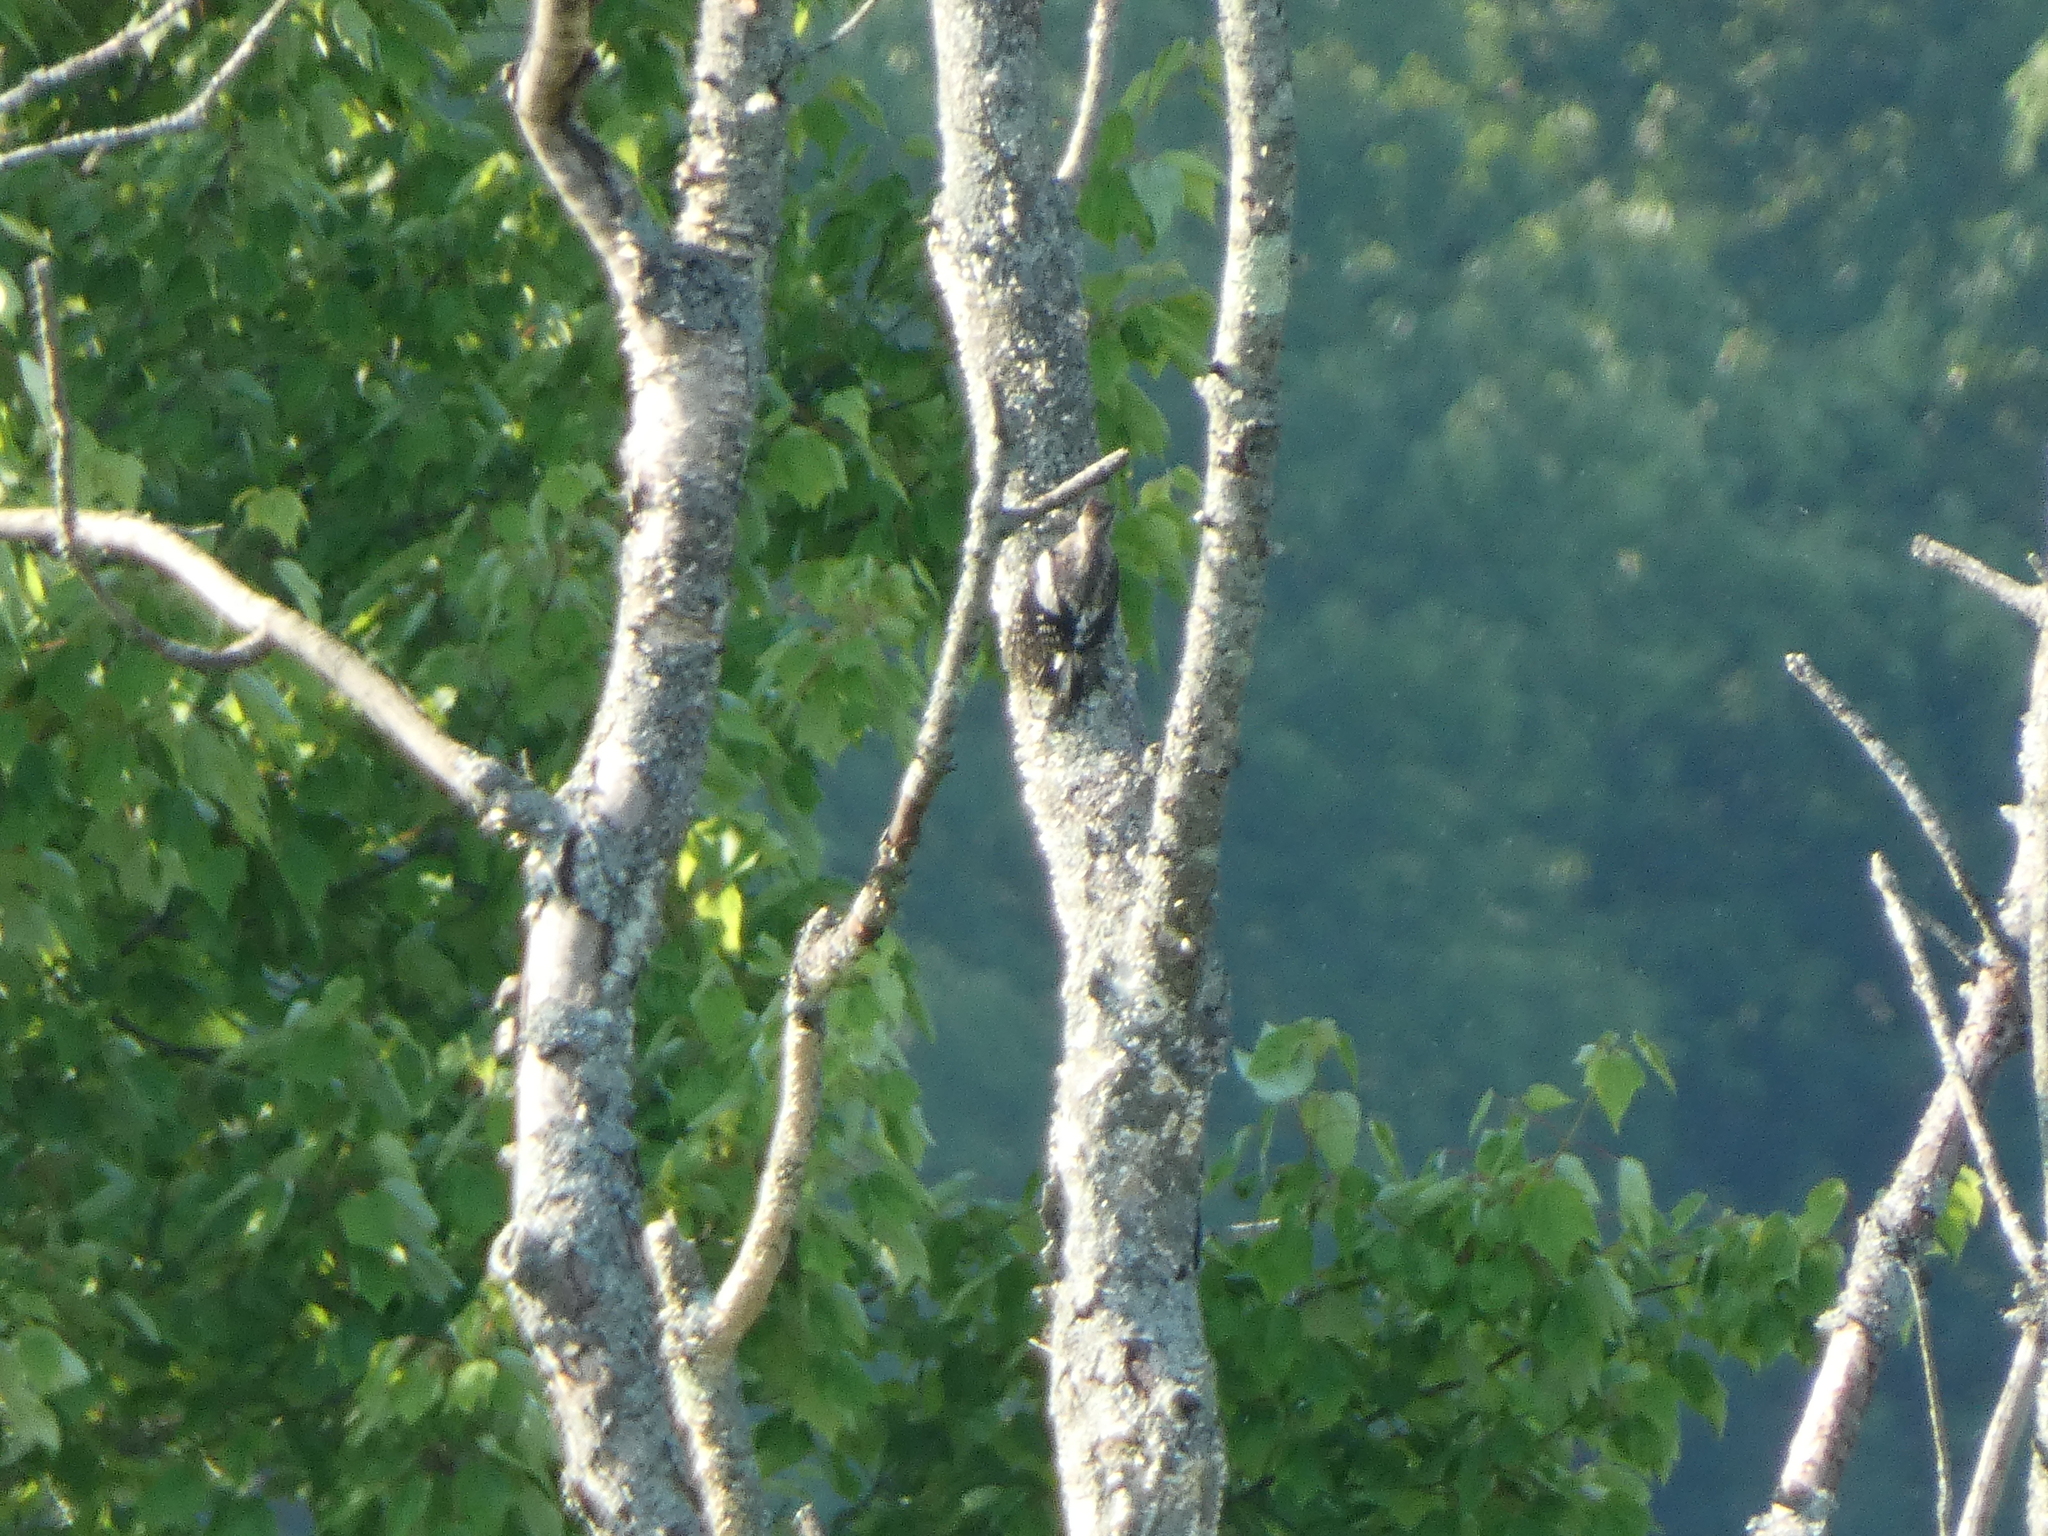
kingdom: Animalia
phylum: Chordata
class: Aves
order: Piciformes
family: Picidae
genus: Sphyrapicus
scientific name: Sphyrapicus varius
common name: Yellow-bellied sapsucker
